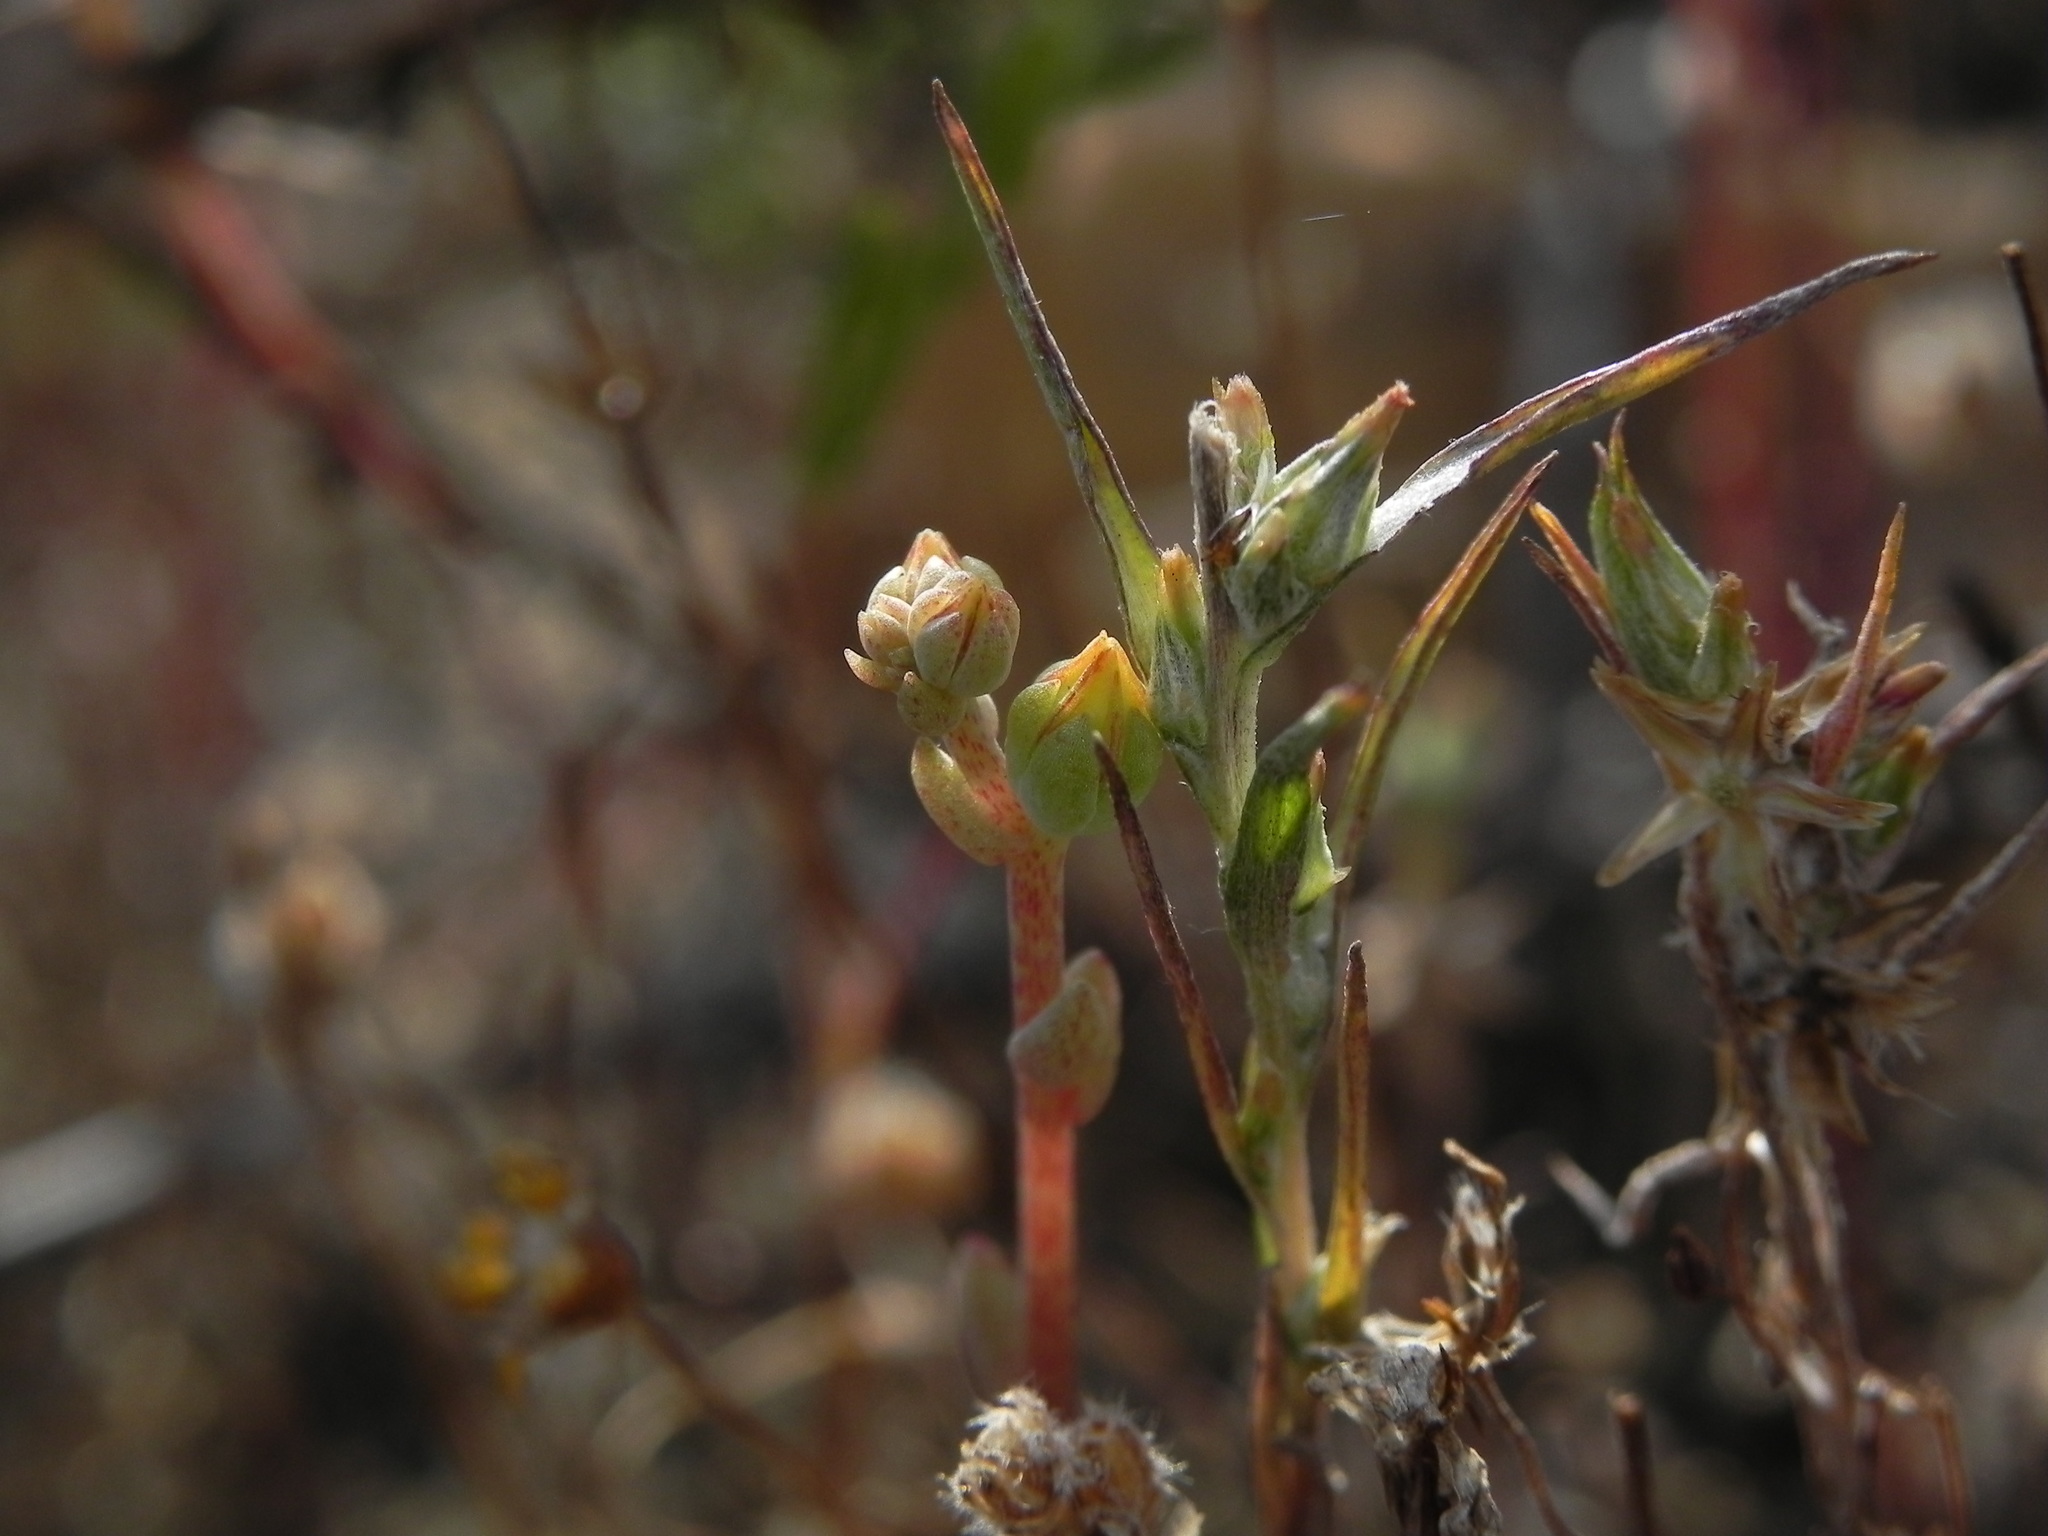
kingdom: Plantae
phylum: Tracheophyta
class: Magnoliopsida
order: Saxifragales
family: Crassulaceae
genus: Dudleya
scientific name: Dudleya variegata
